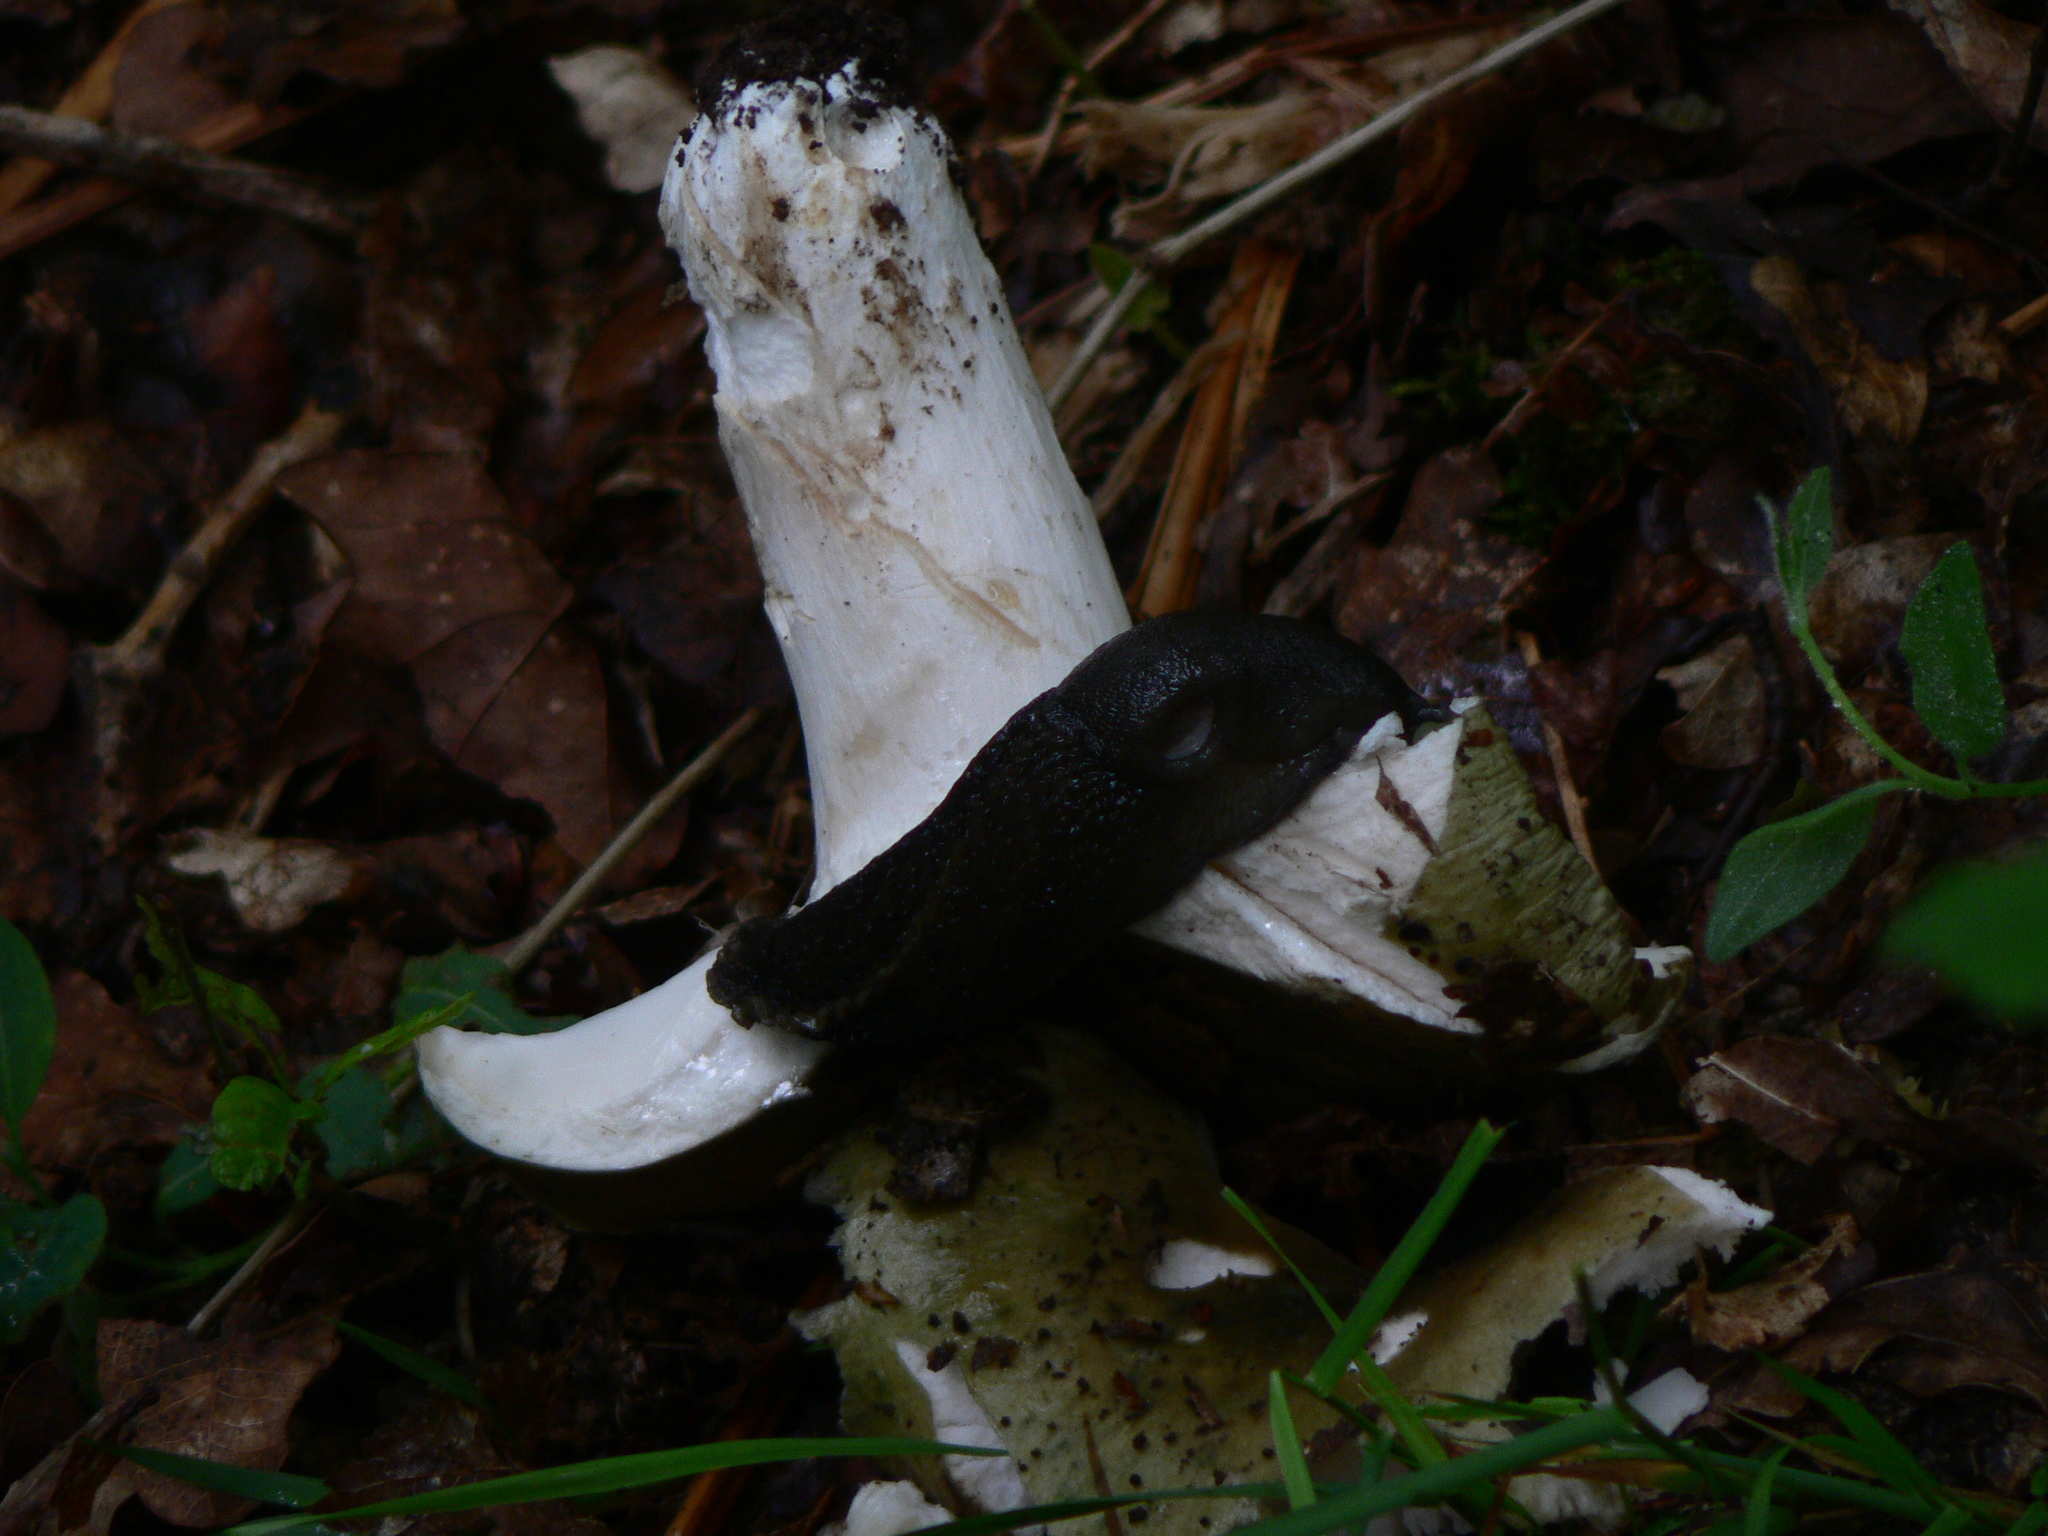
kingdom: Animalia
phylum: Mollusca
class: Gastropoda
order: Stylommatophora
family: Limacidae
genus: Limax
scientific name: Limax cinereoniger
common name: Ash-black slug
